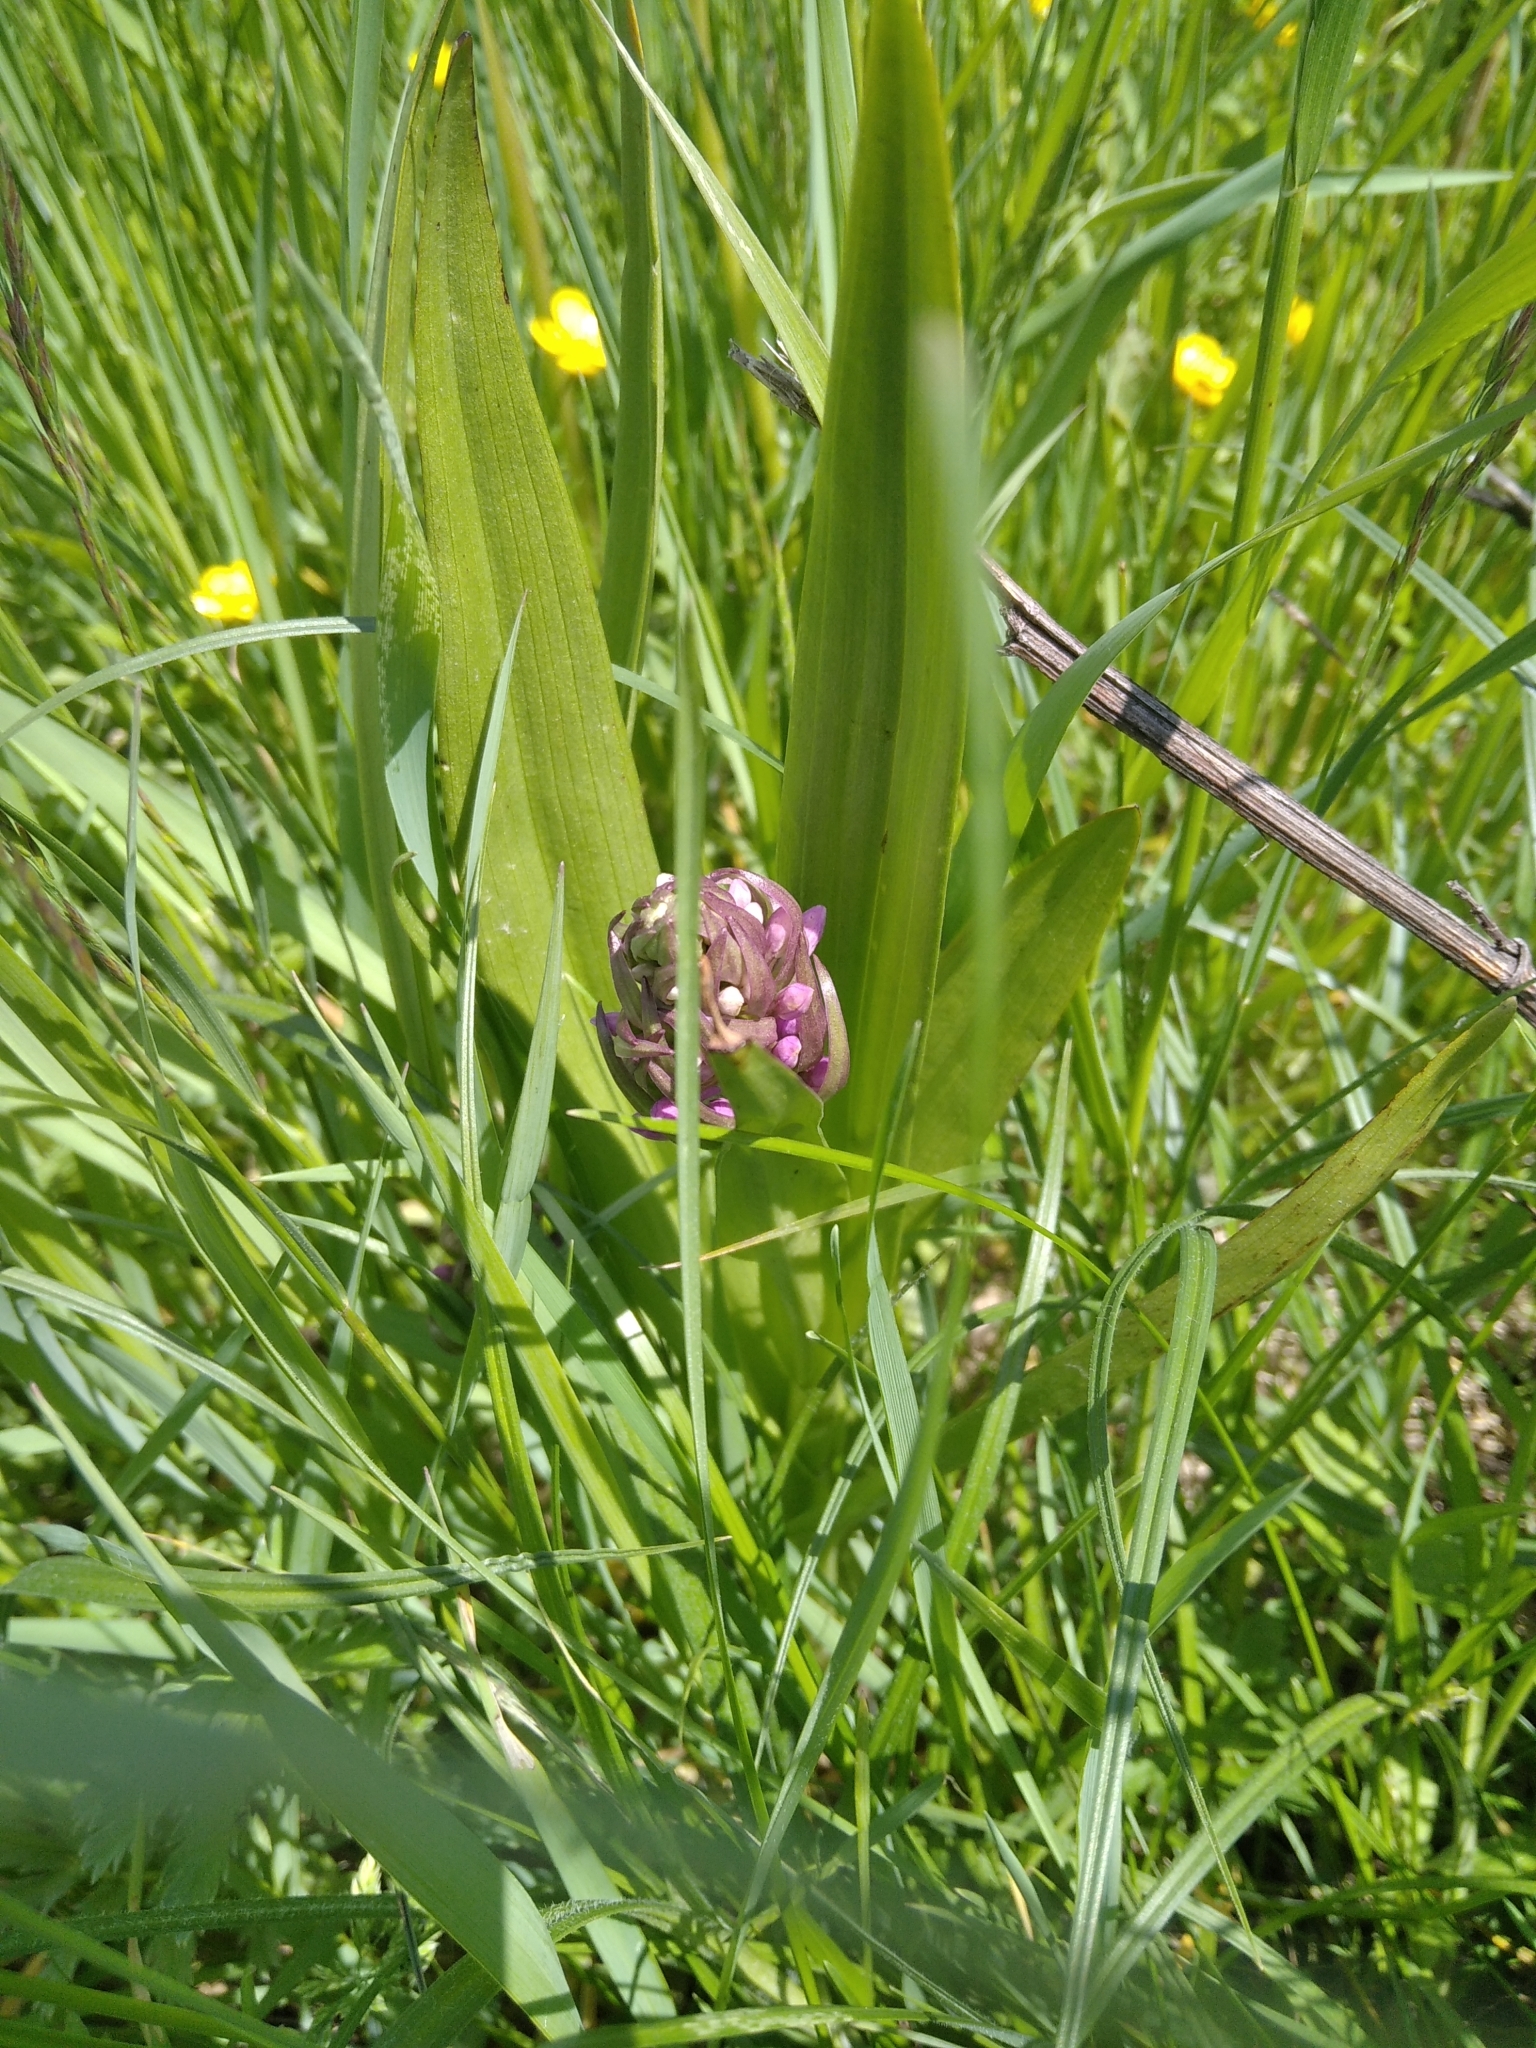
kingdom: Plantae
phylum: Tracheophyta
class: Liliopsida
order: Asparagales
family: Orchidaceae
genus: Dactylorhiza
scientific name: Dactylorhiza incarnata
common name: Early marsh-orchid
